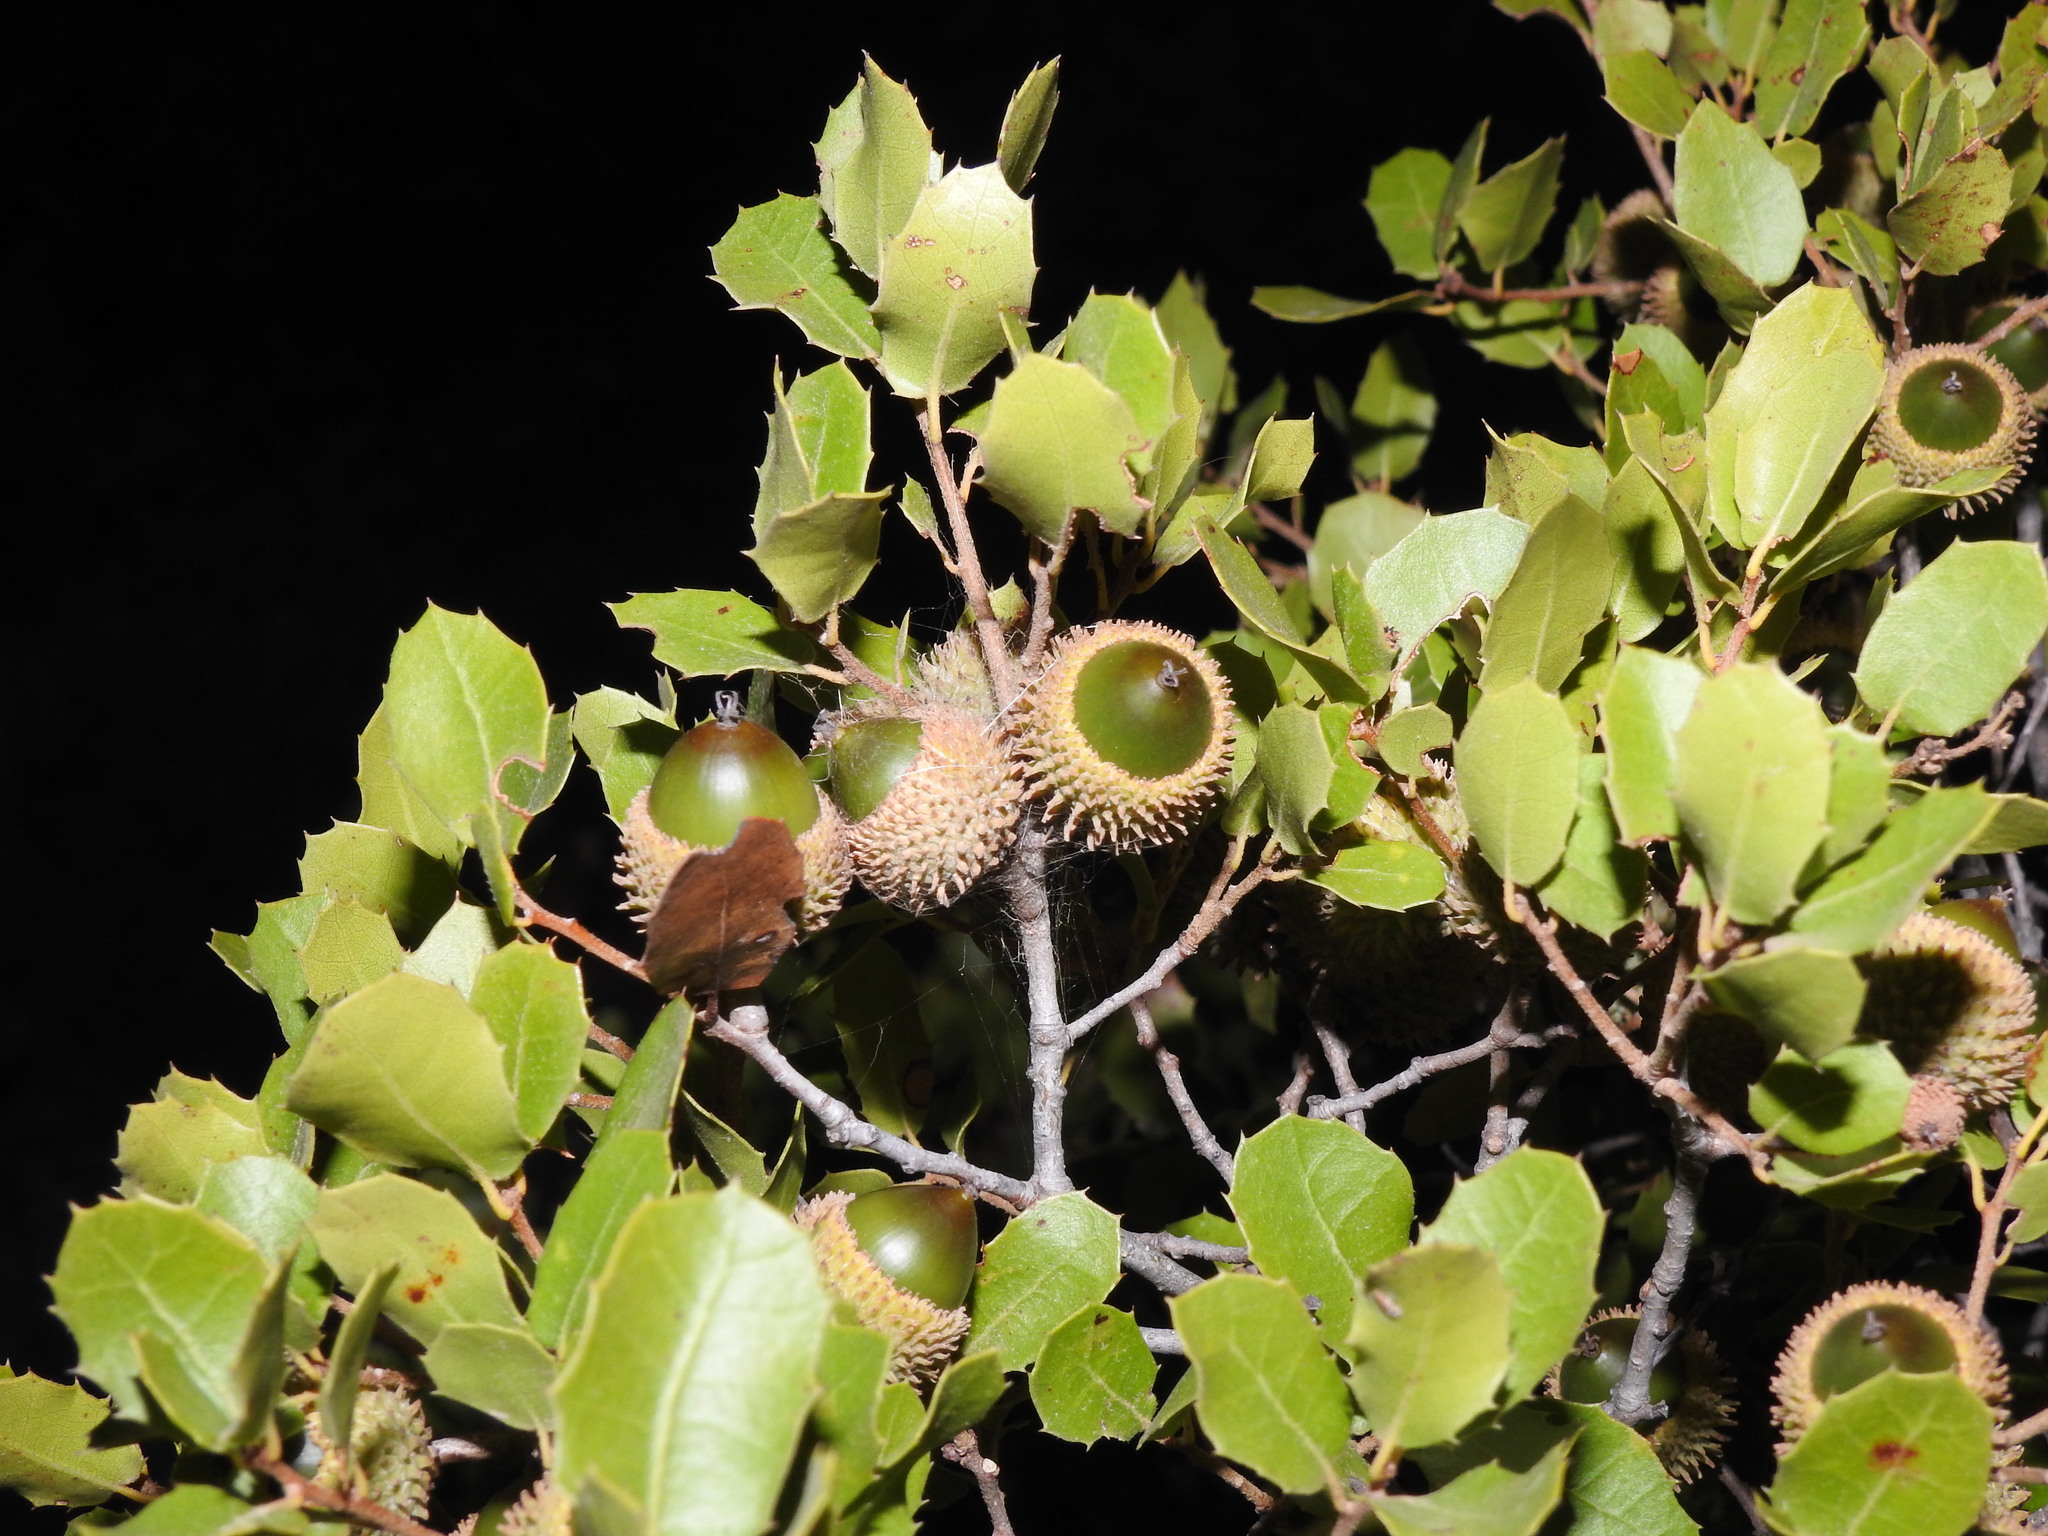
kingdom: Plantae
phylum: Tracheophyta
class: Magnoliopsida
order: Fagales
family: Fagaceae
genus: Quercus
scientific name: Quercus coccifera
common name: Kermes oak
